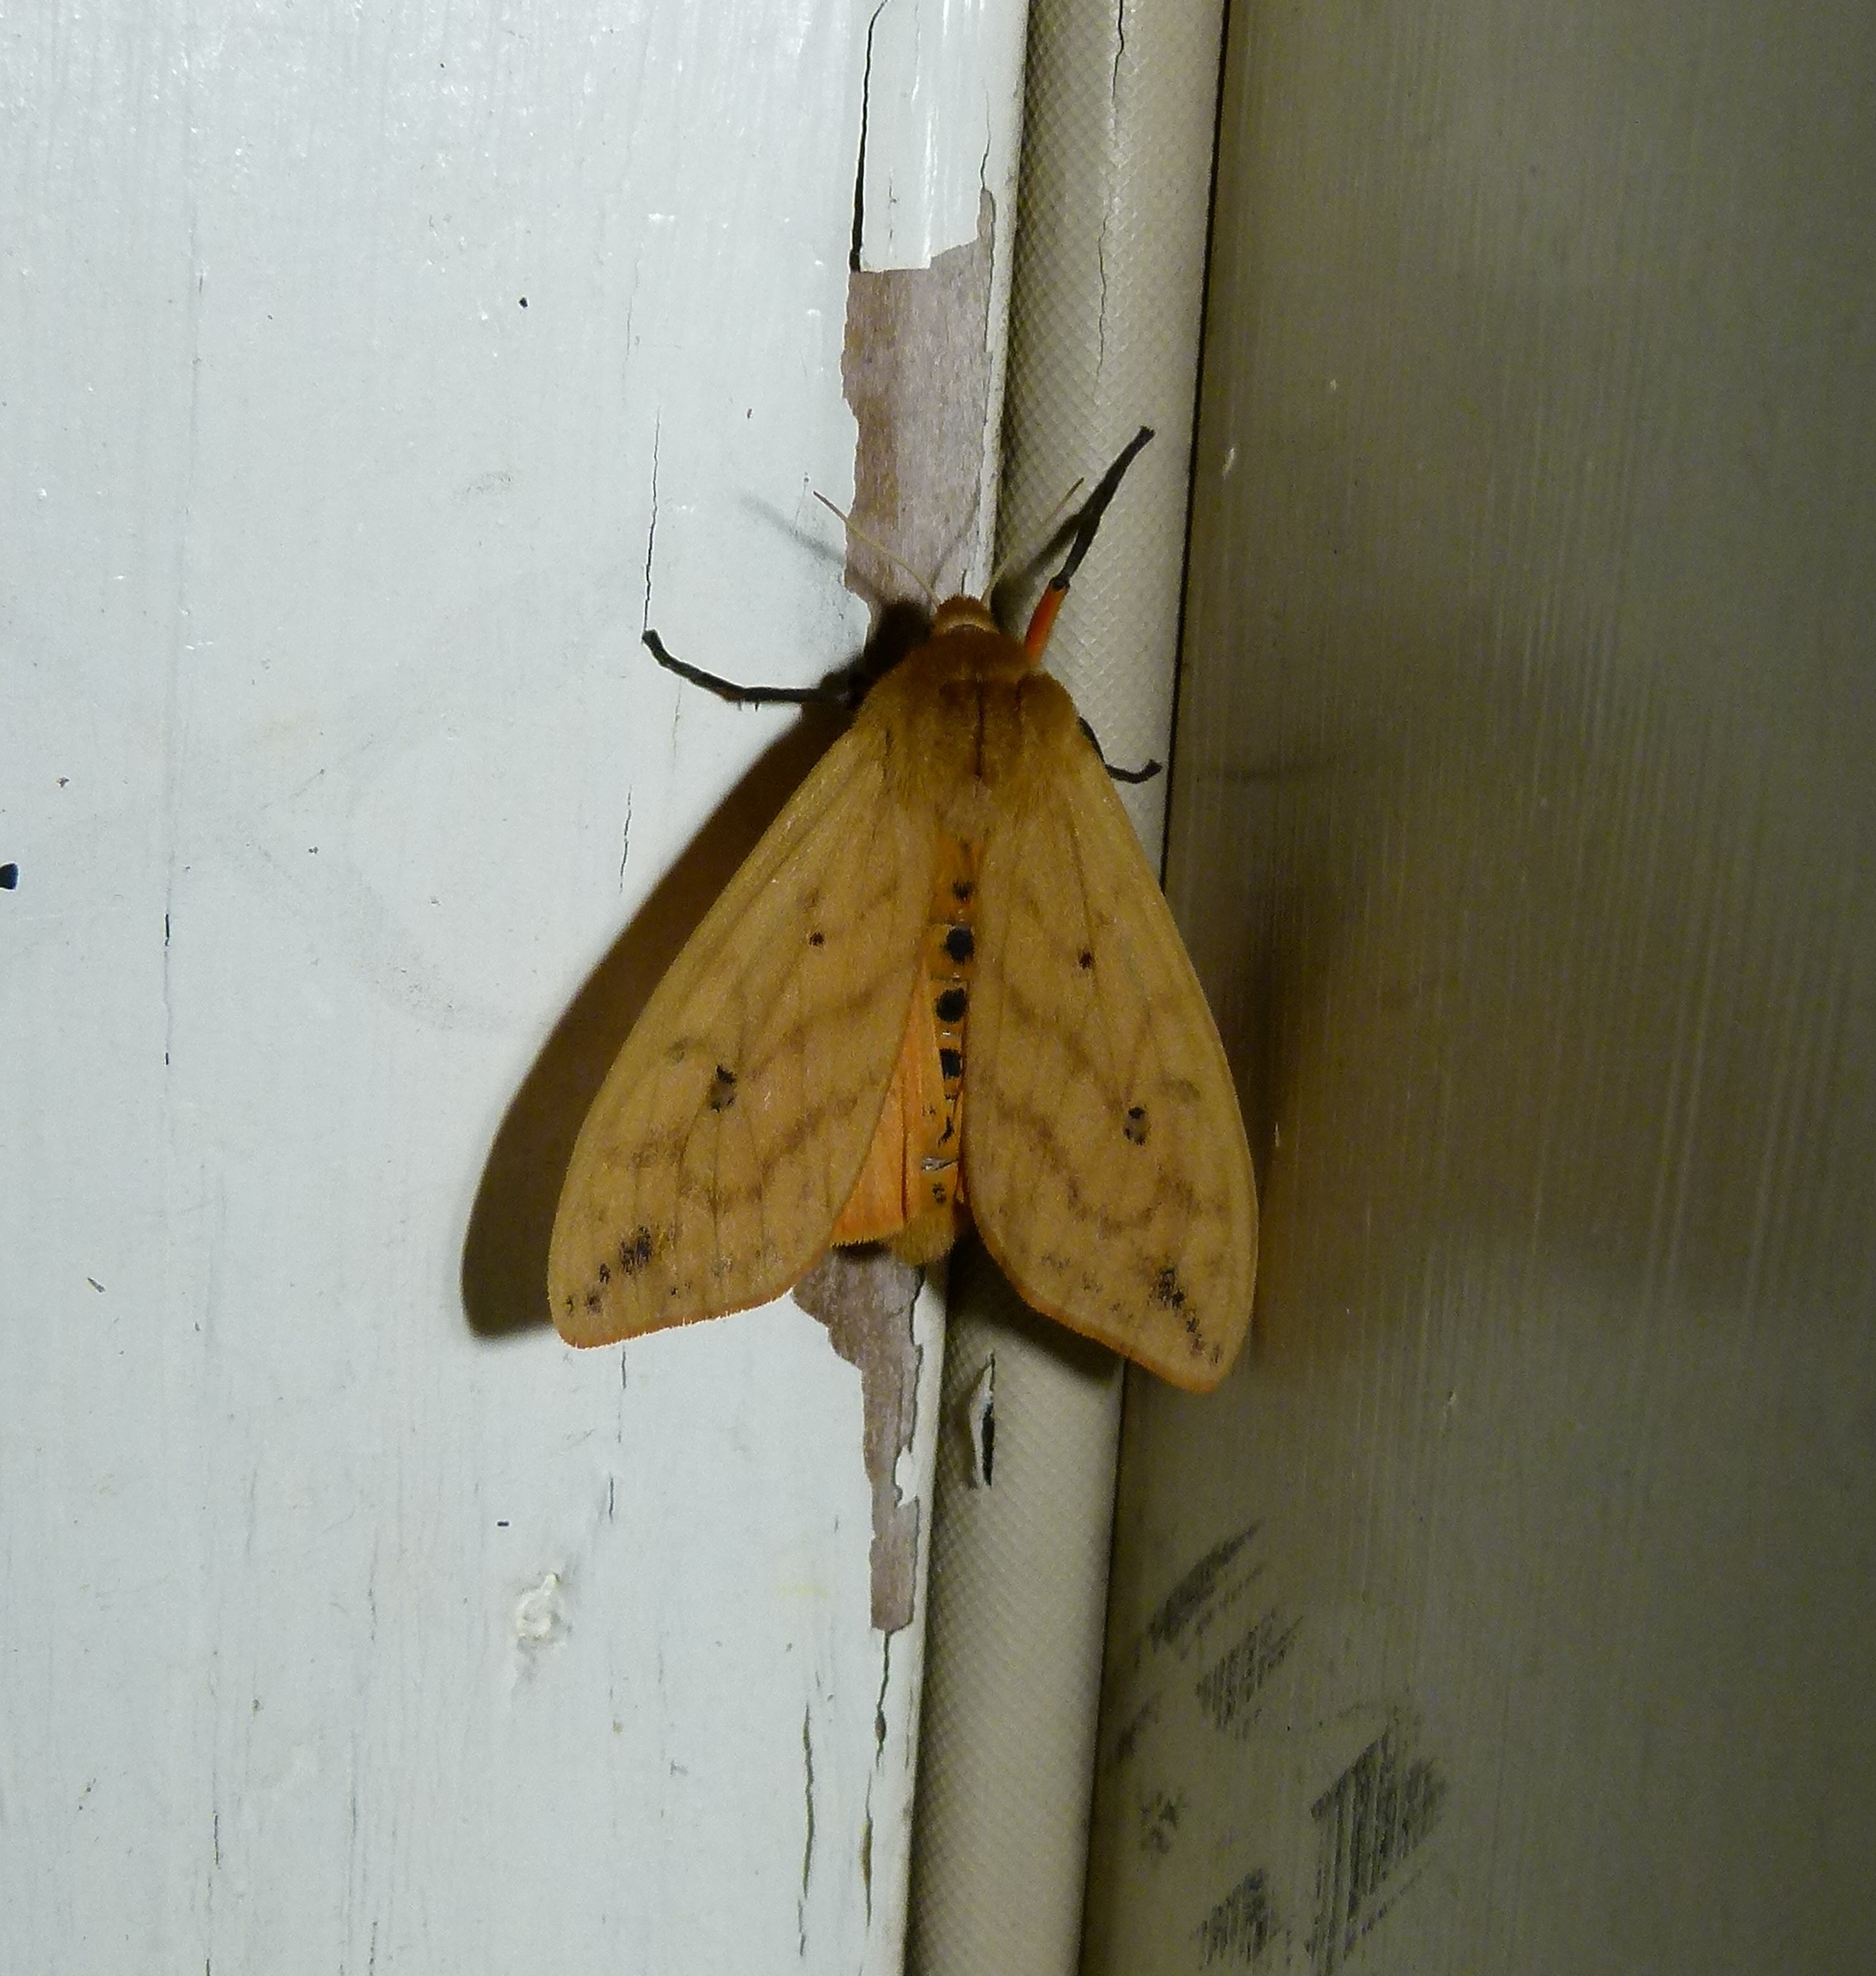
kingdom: Animalia
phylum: Arthropoda
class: Insecta
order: Lepidoptera
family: Erebidae
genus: Pyrrharctia
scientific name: Pyrrharctia isabella
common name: Isabella tiger moth
